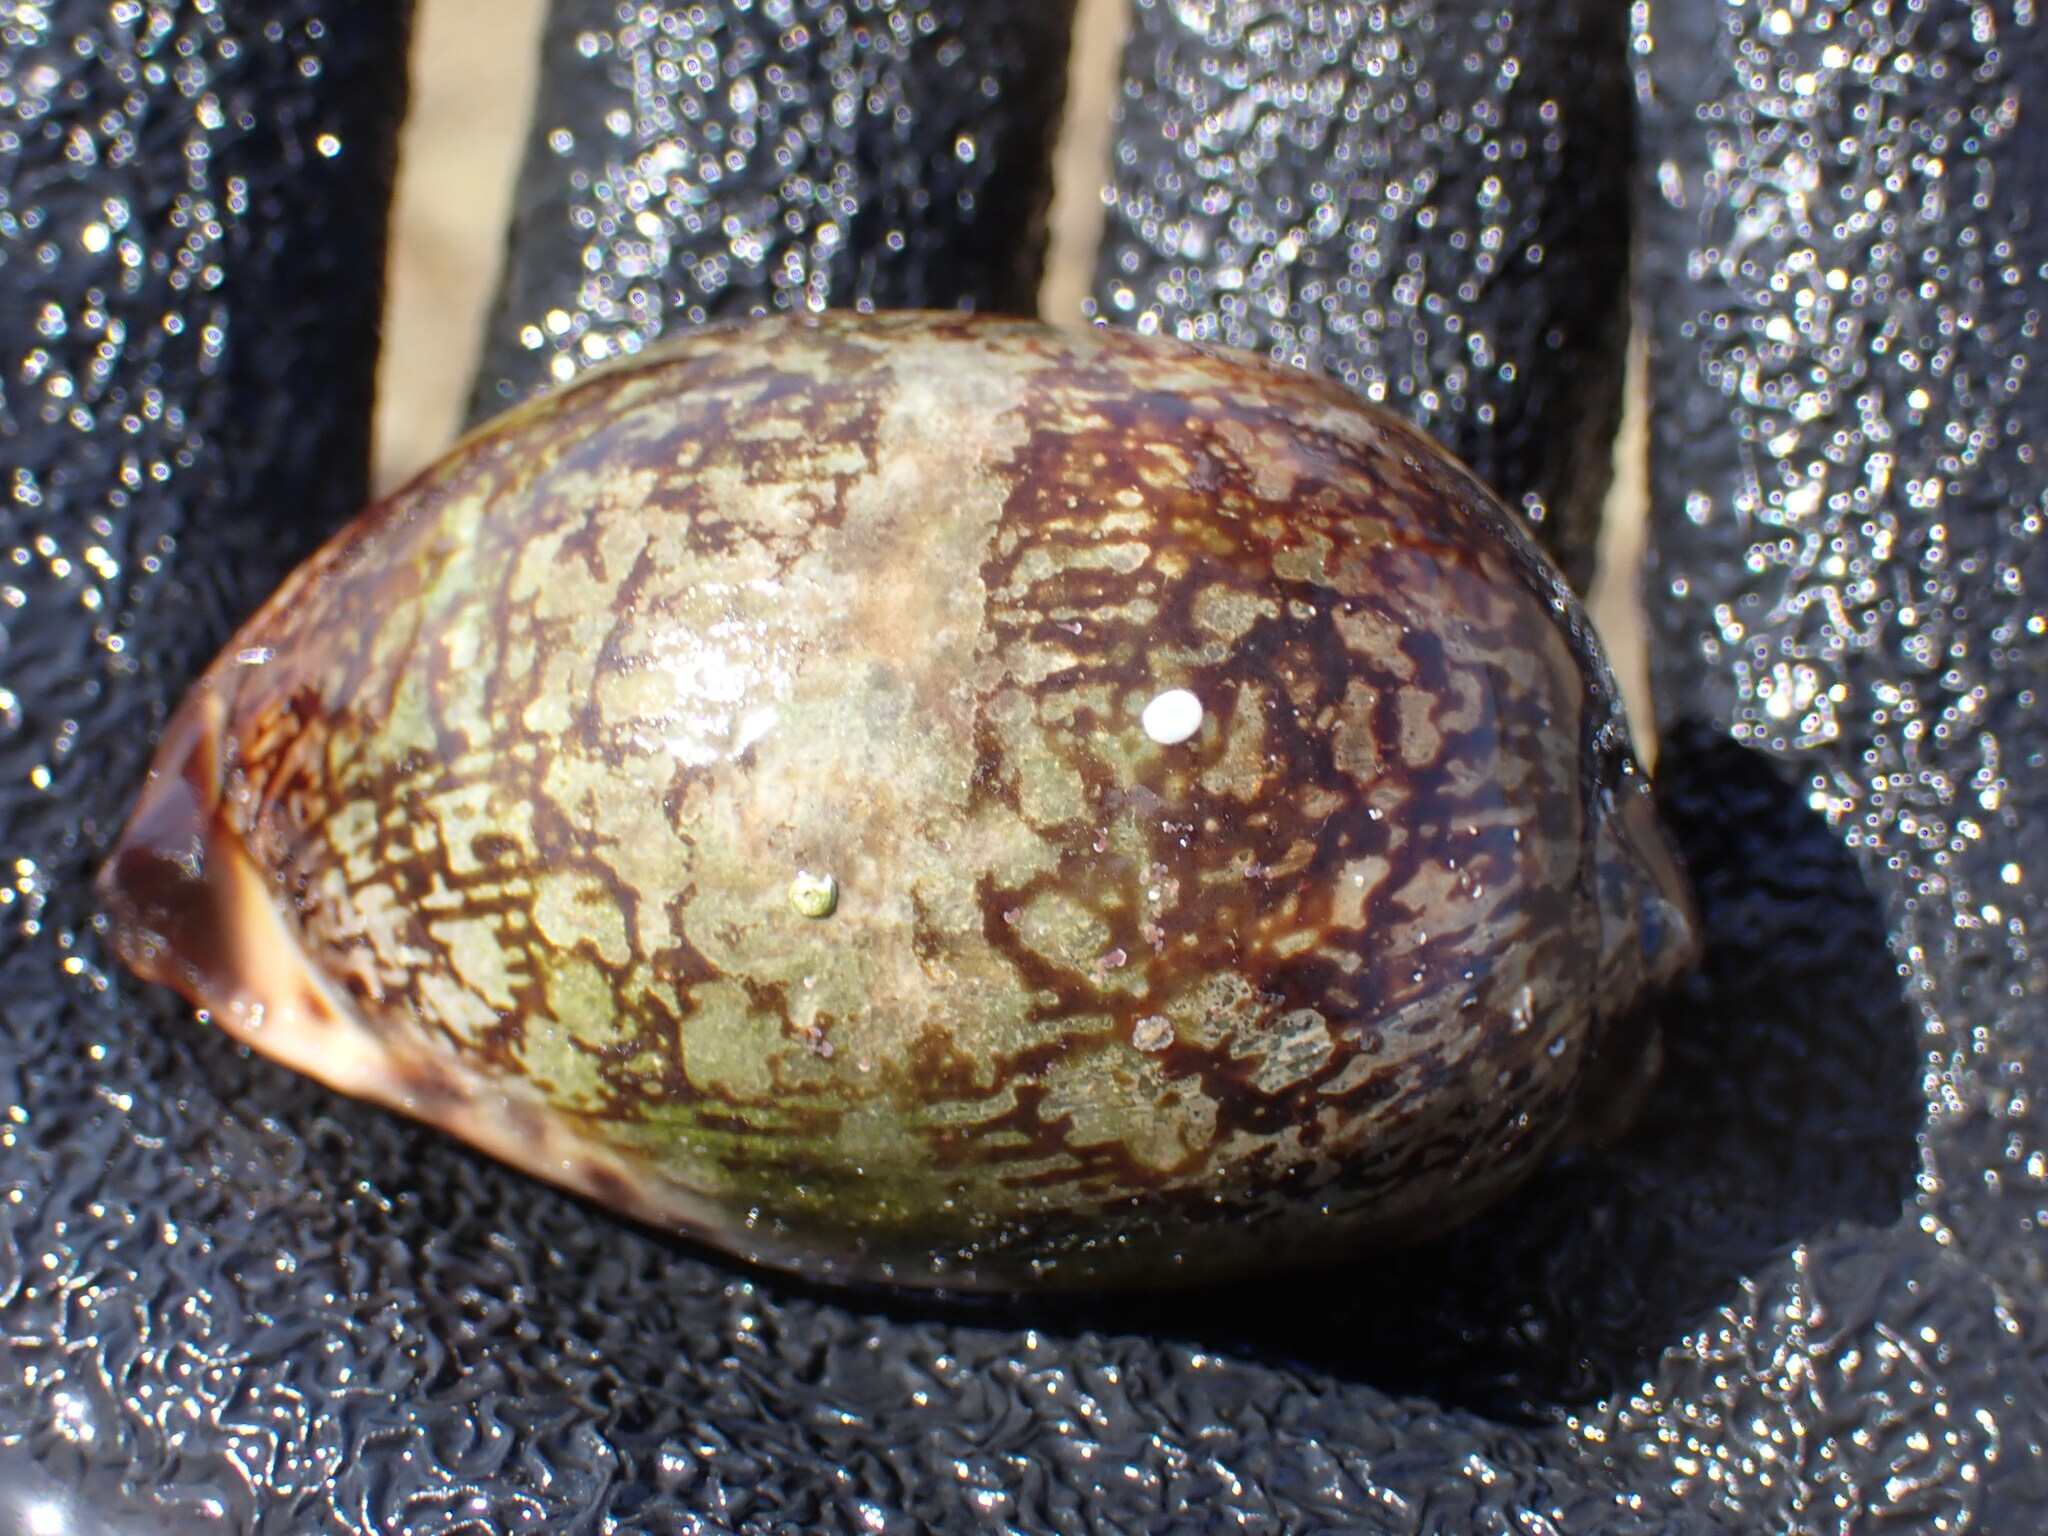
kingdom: Animalia
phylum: Mollusca
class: Gastropoda
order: Littorinimorpha
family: Cypraeidae
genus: Mauritia
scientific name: Mauritia arabica
